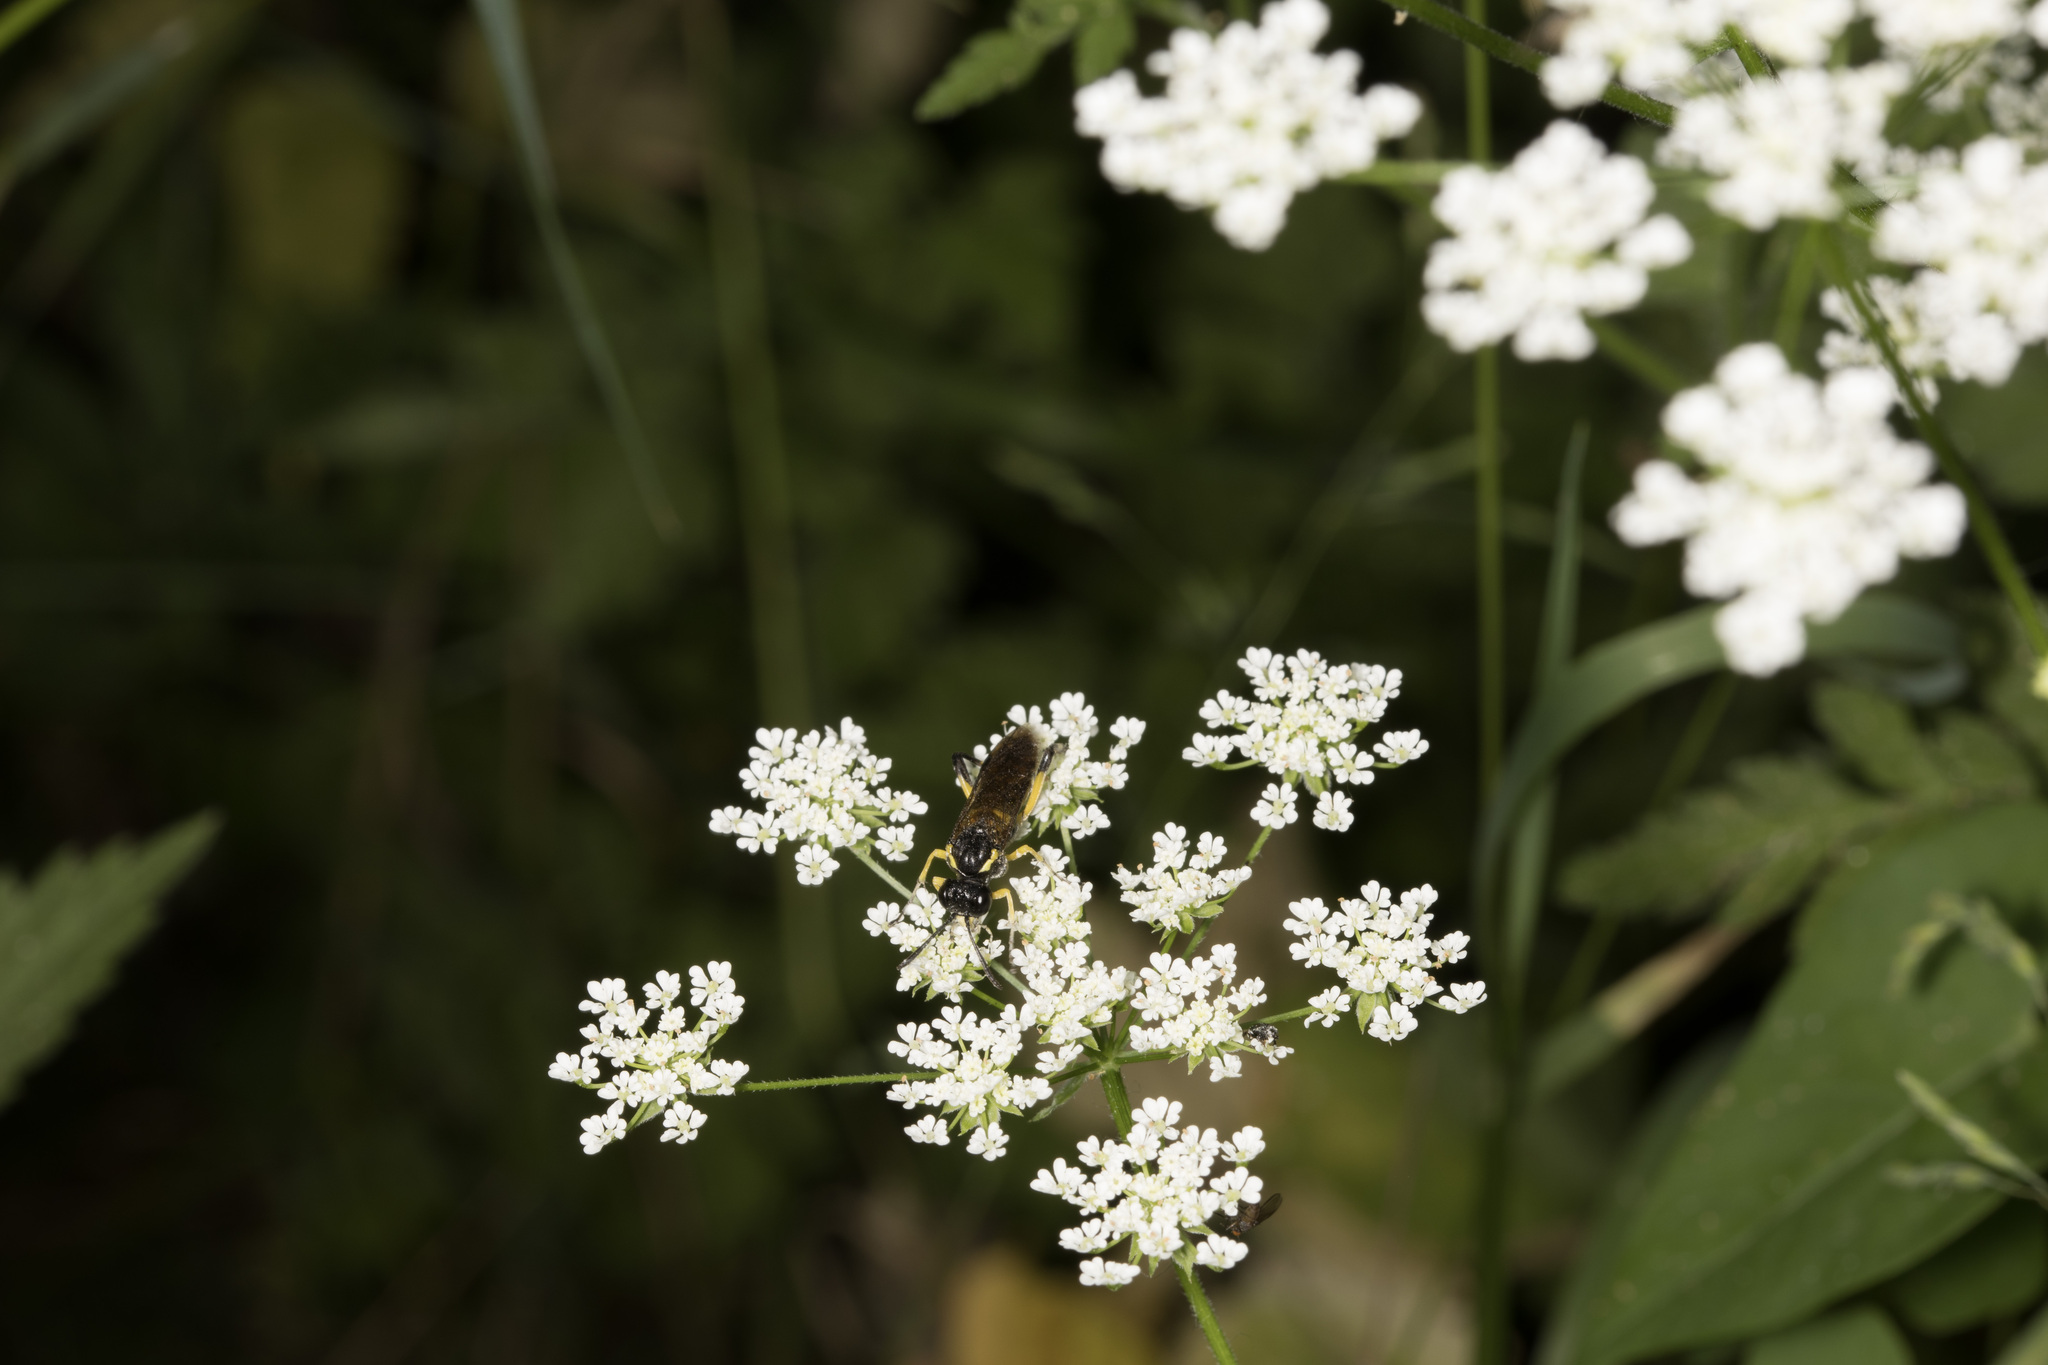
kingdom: Animalia
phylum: Arthropoda
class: Insecta
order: Hymenoptera
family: Tenthredinidae
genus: Macrophya
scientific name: Macrophya montana
